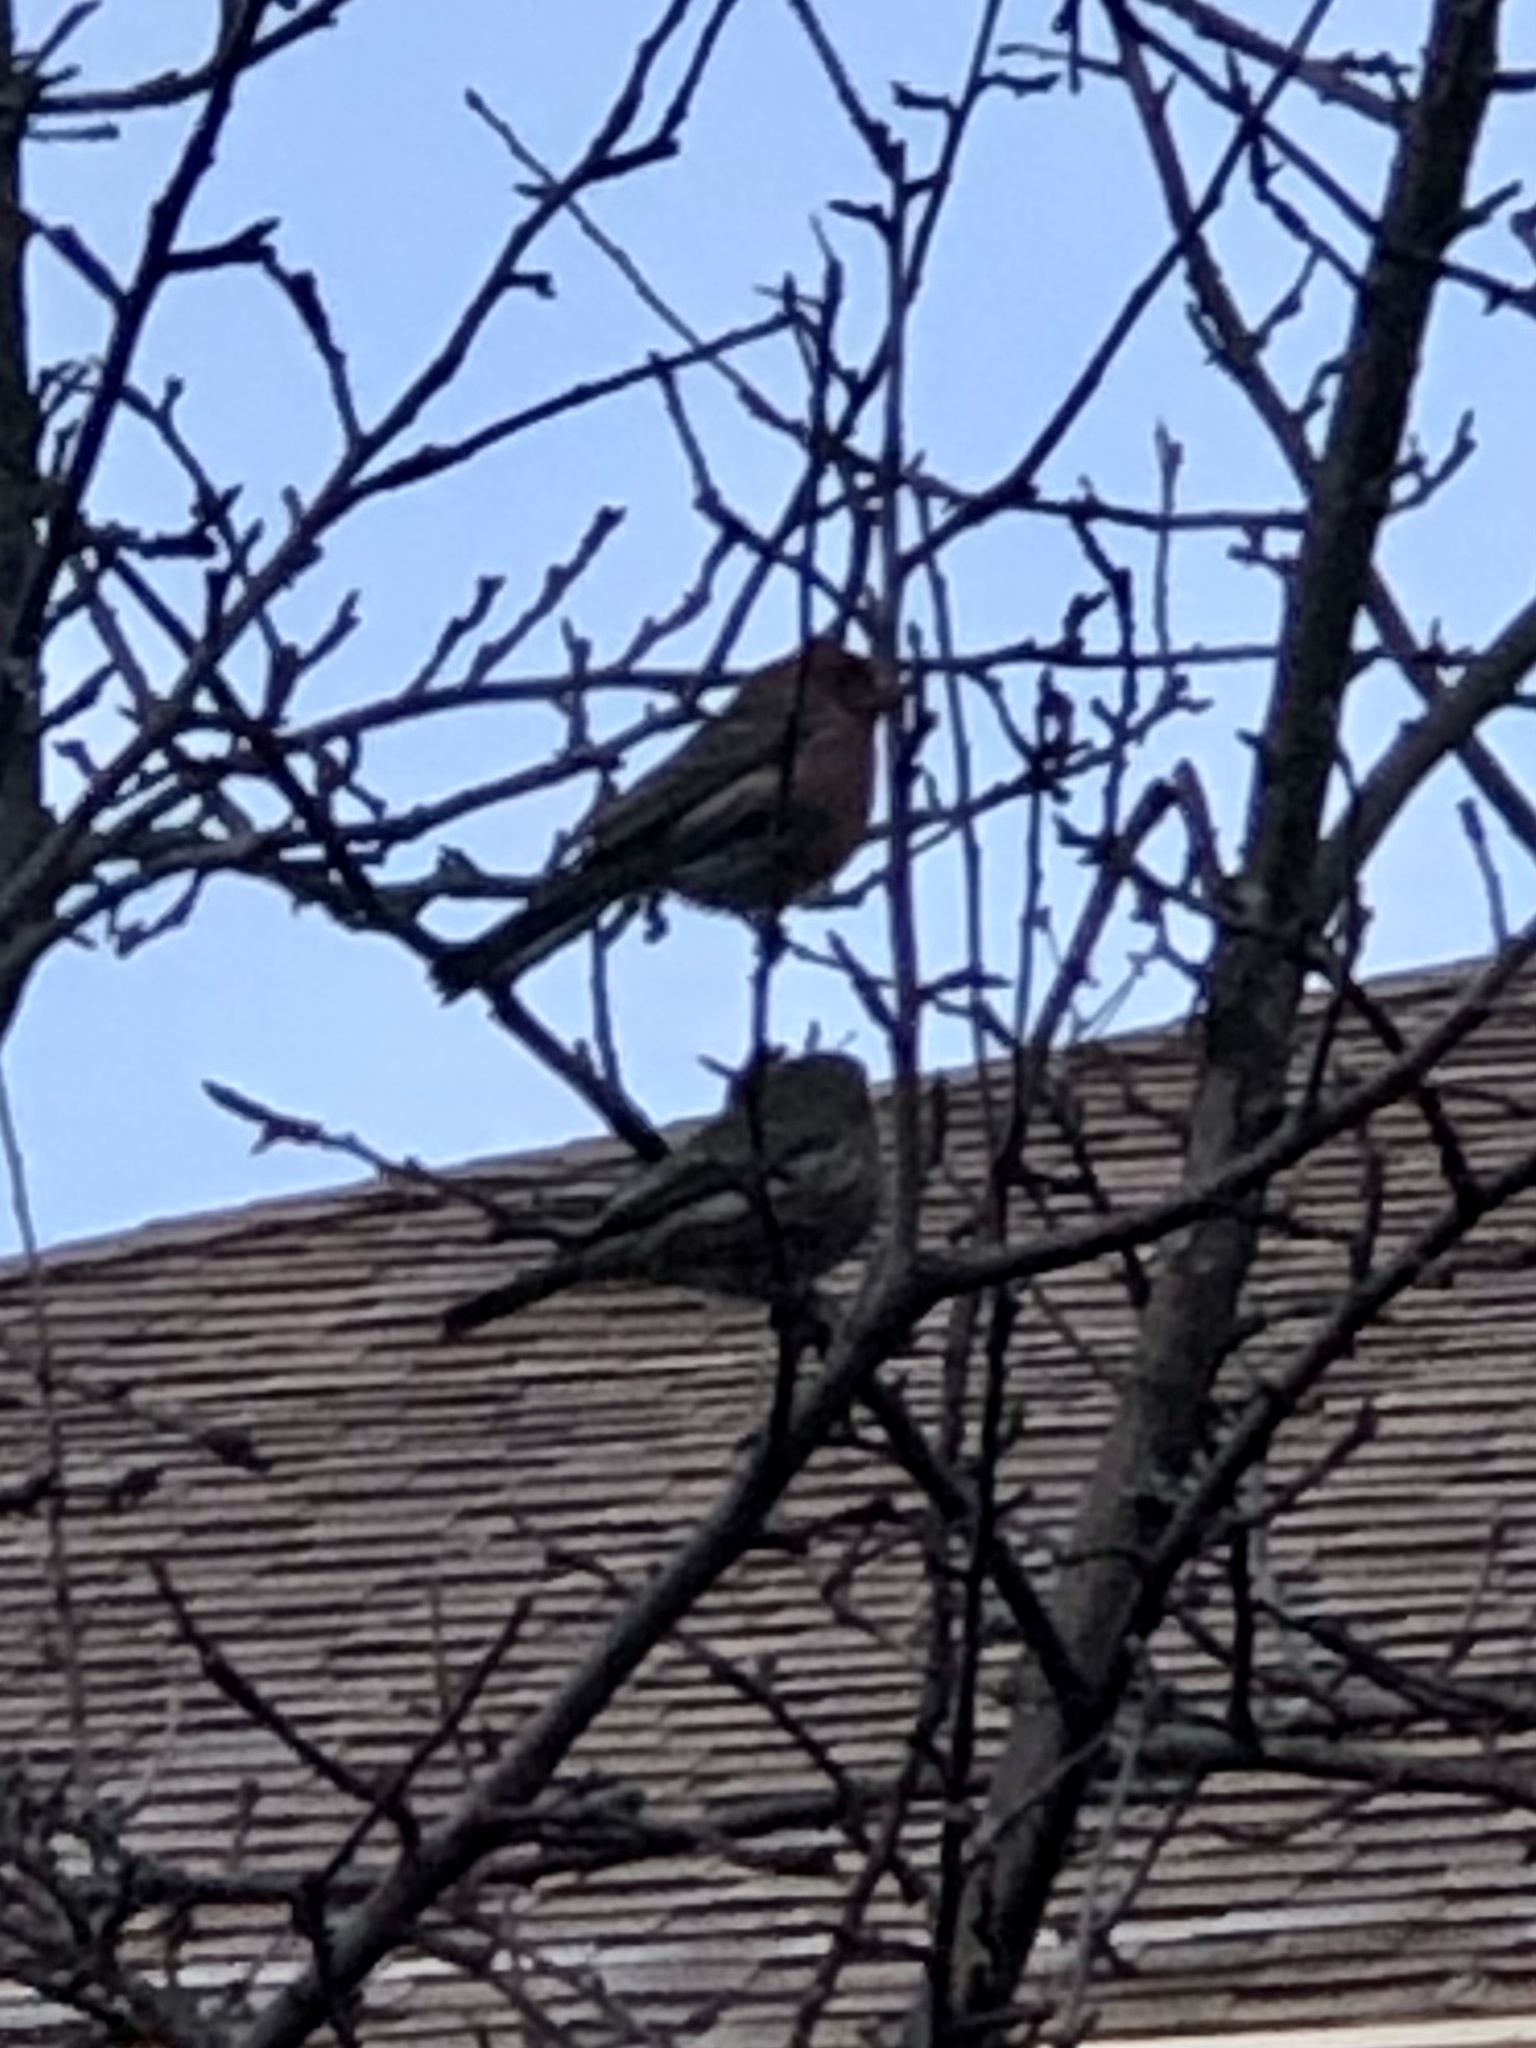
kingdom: Animalia
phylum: Chordata
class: Aves
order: Passeriformes
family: Fringillidae
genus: Haemorhous
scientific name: Haemorhous mexicanus
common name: House finch
